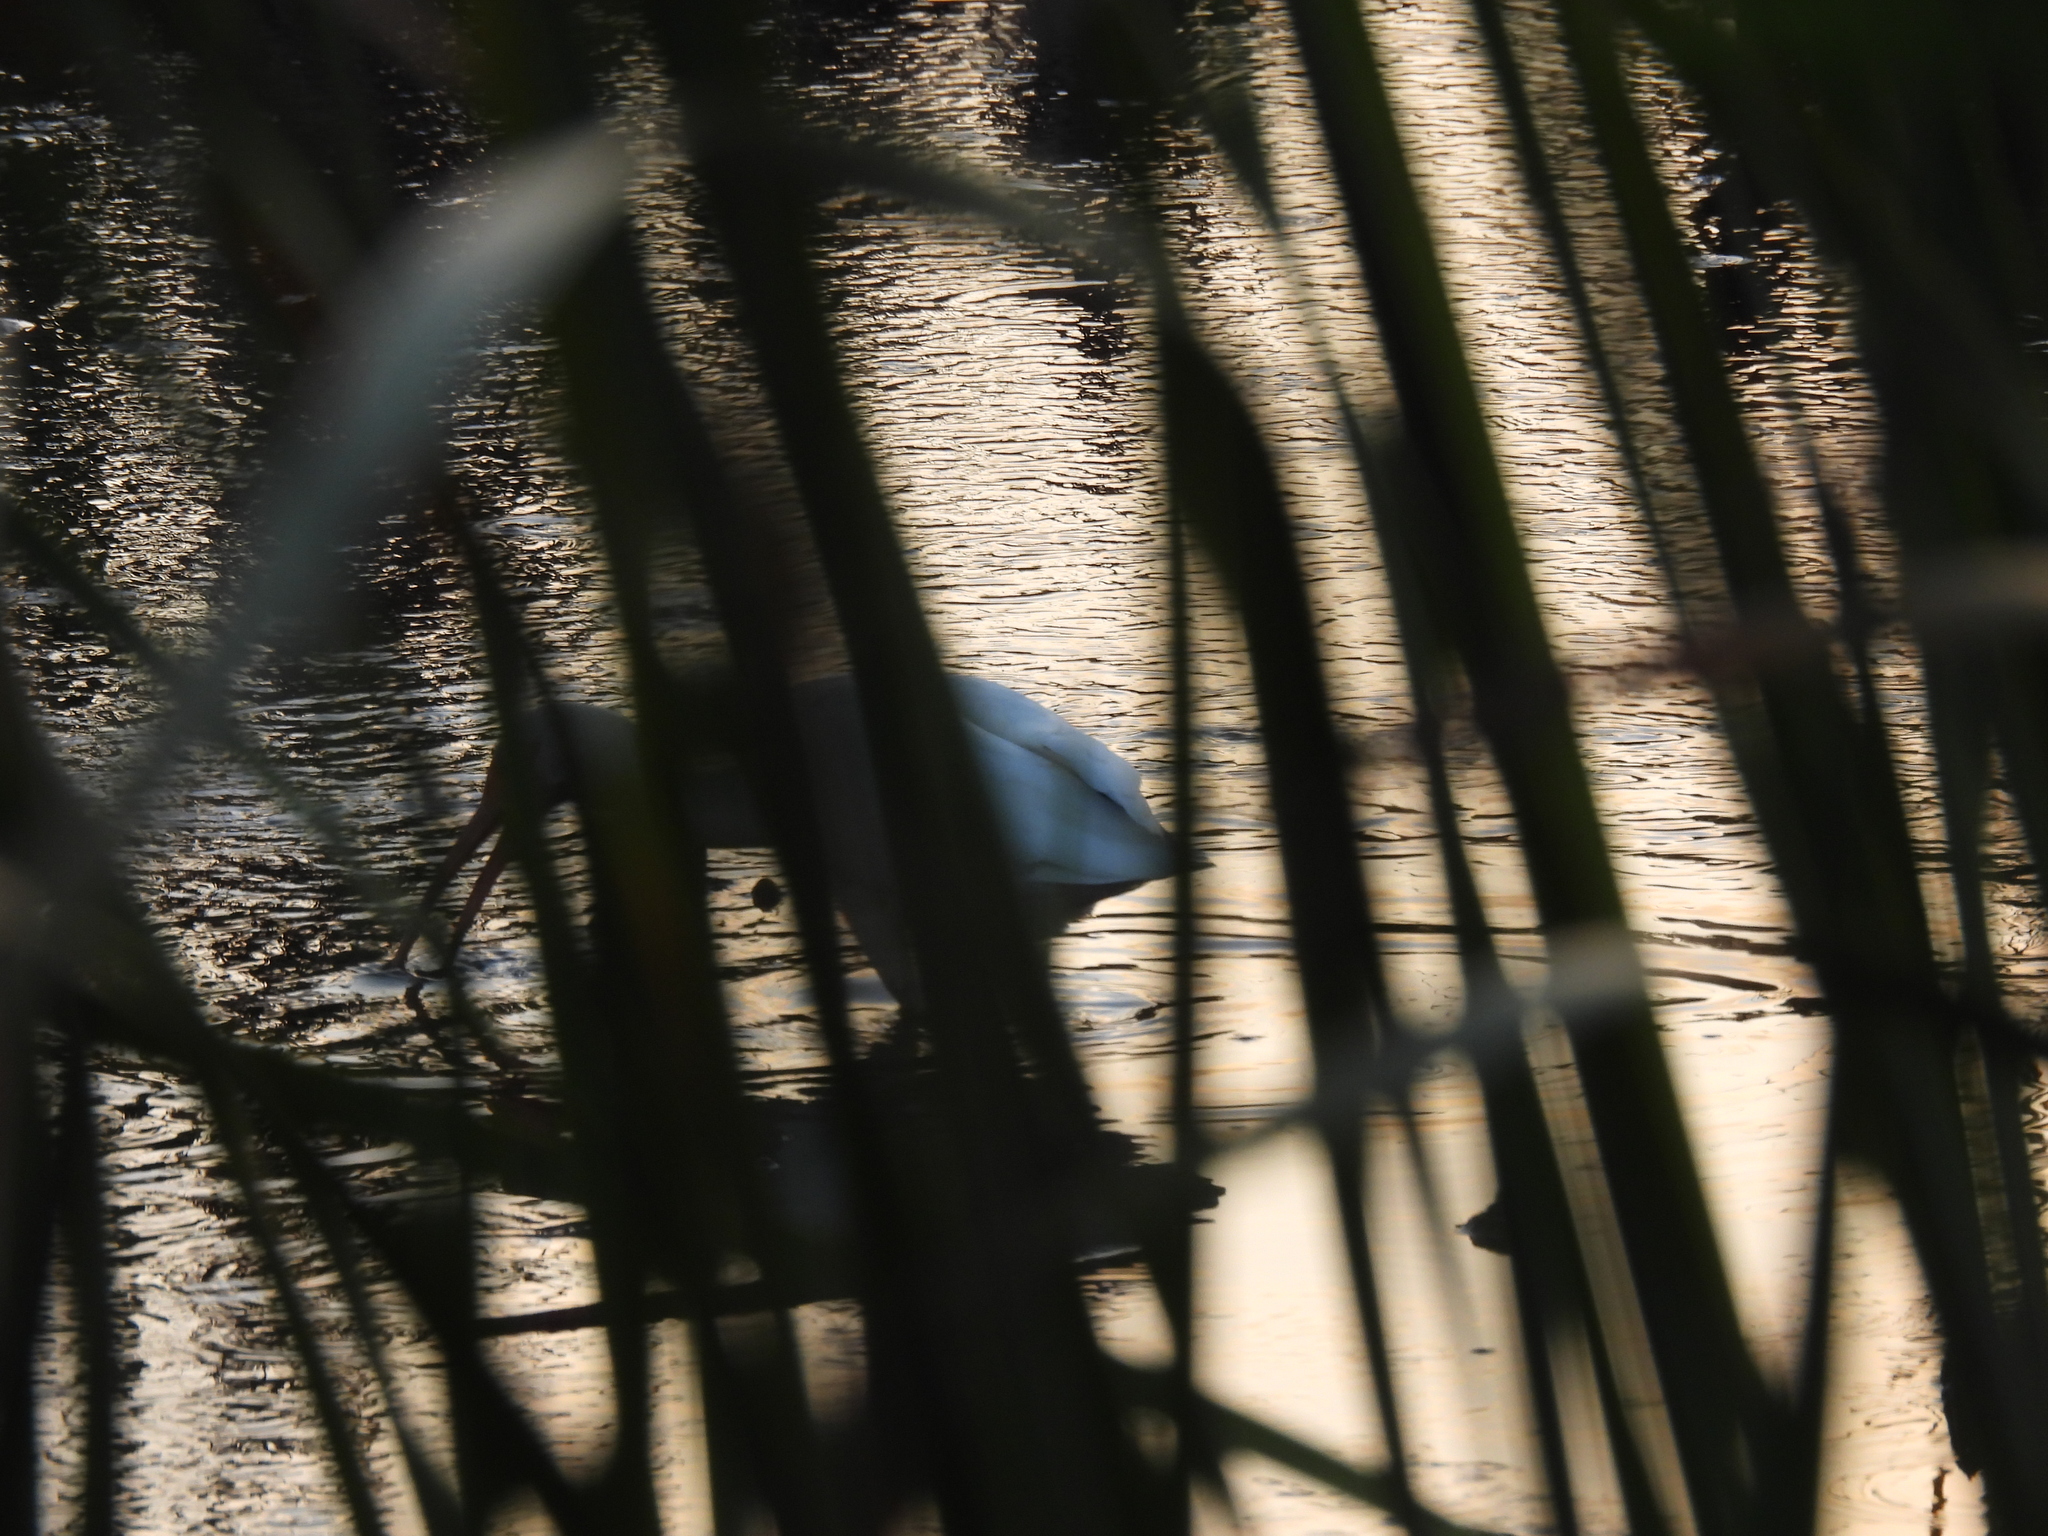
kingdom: Animalia
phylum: Chordata
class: Aves
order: Pelecaniformes
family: Threskiornithidae
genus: Eudocimus
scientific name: Eudocimus albus
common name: White ibis
